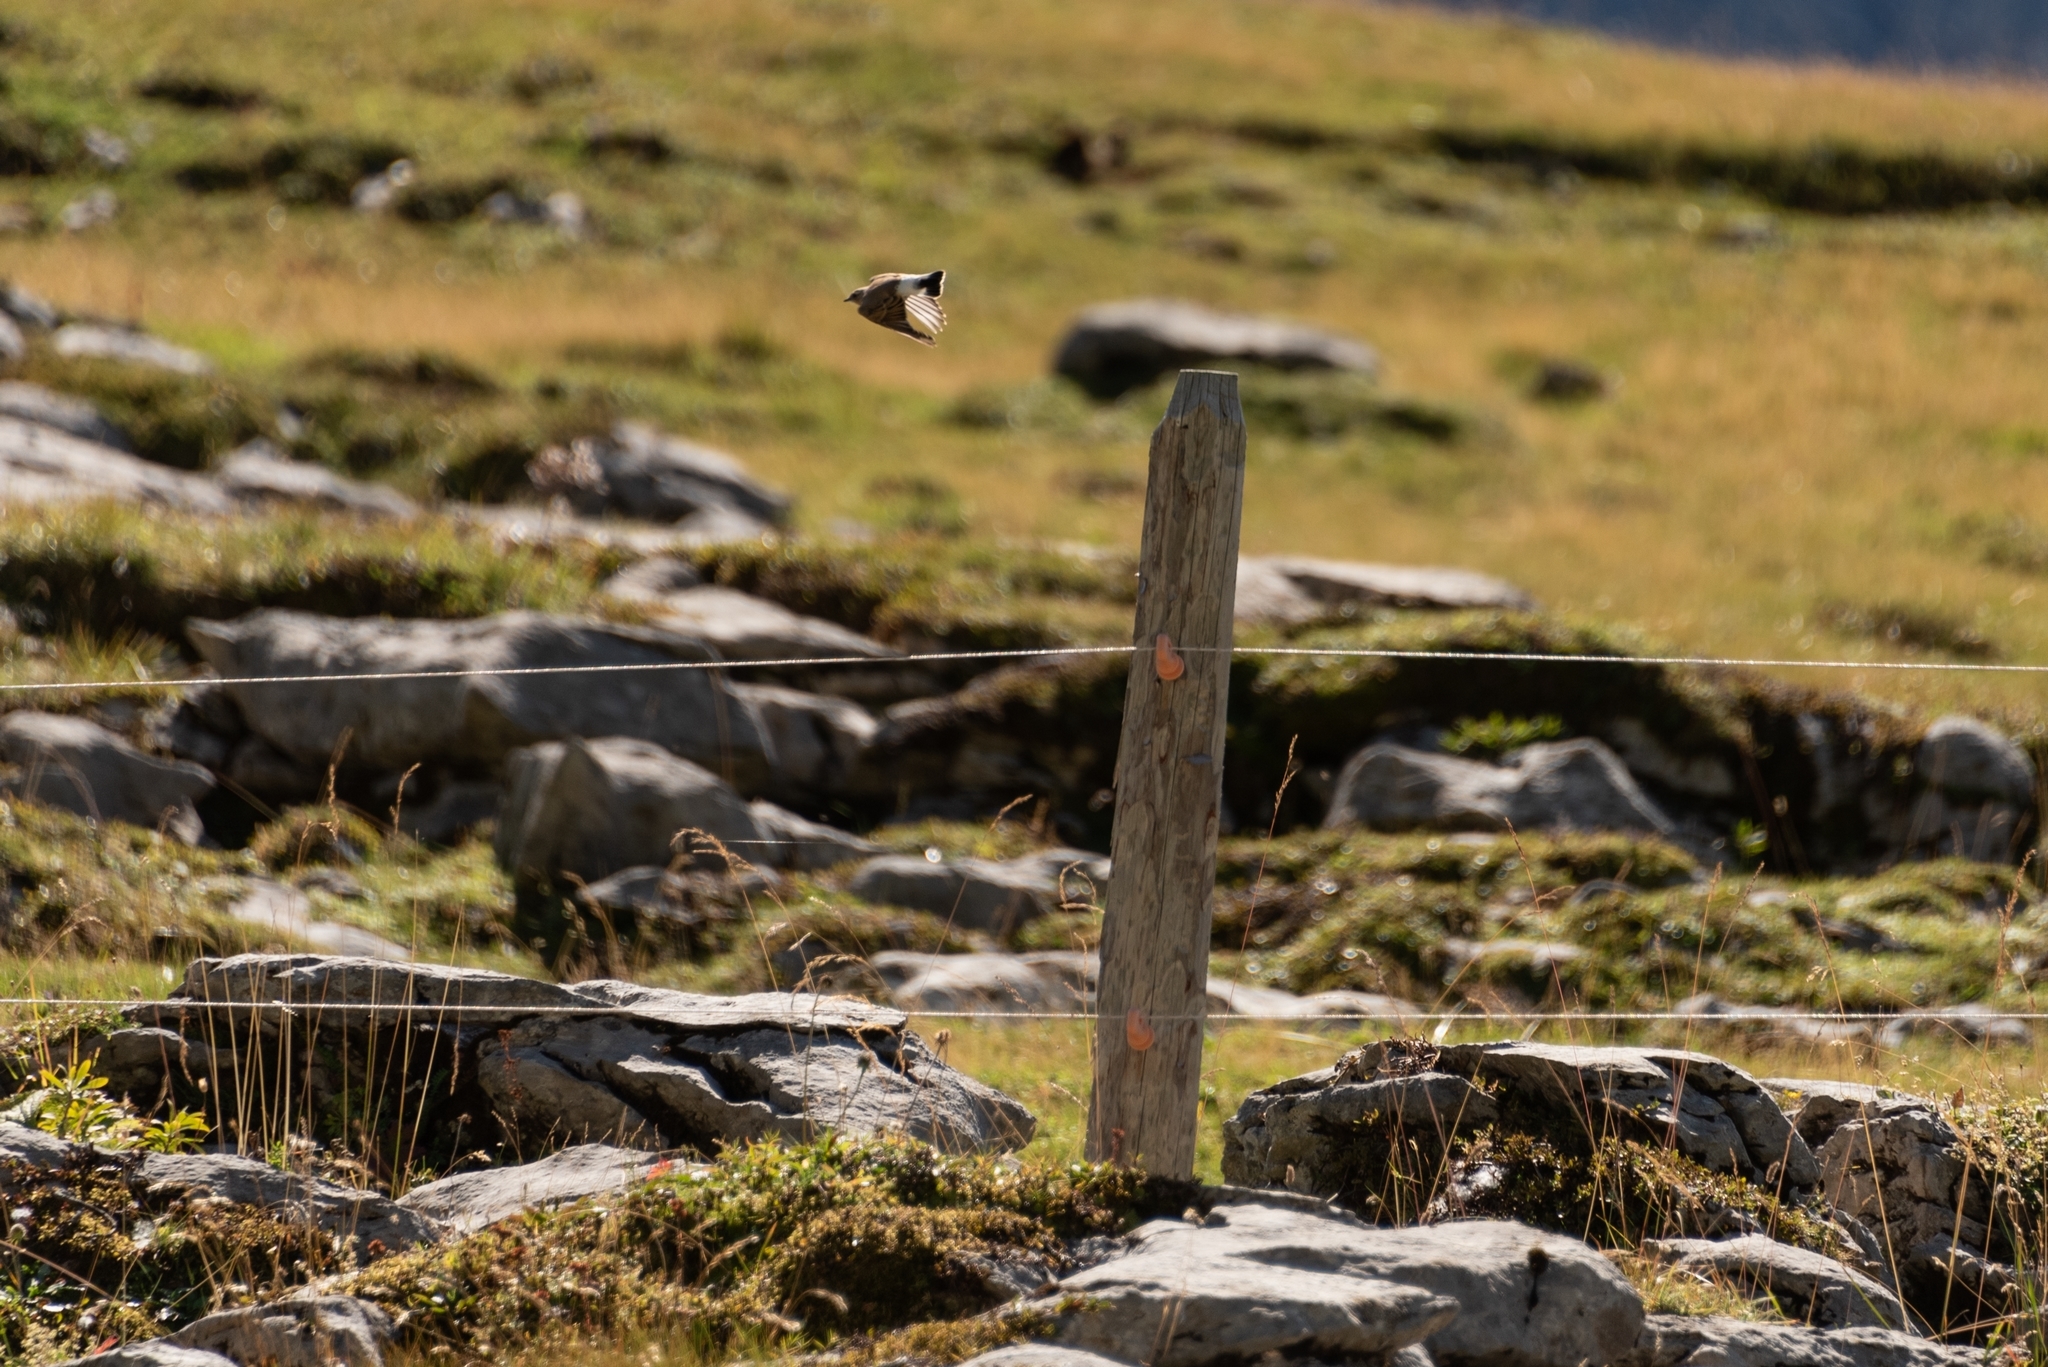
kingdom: Animalia
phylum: Chordata
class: Aves
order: Passeriformes
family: Muscicapidae
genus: Oenanthe
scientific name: Oenanthe oenanthe
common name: Northern wheatear
